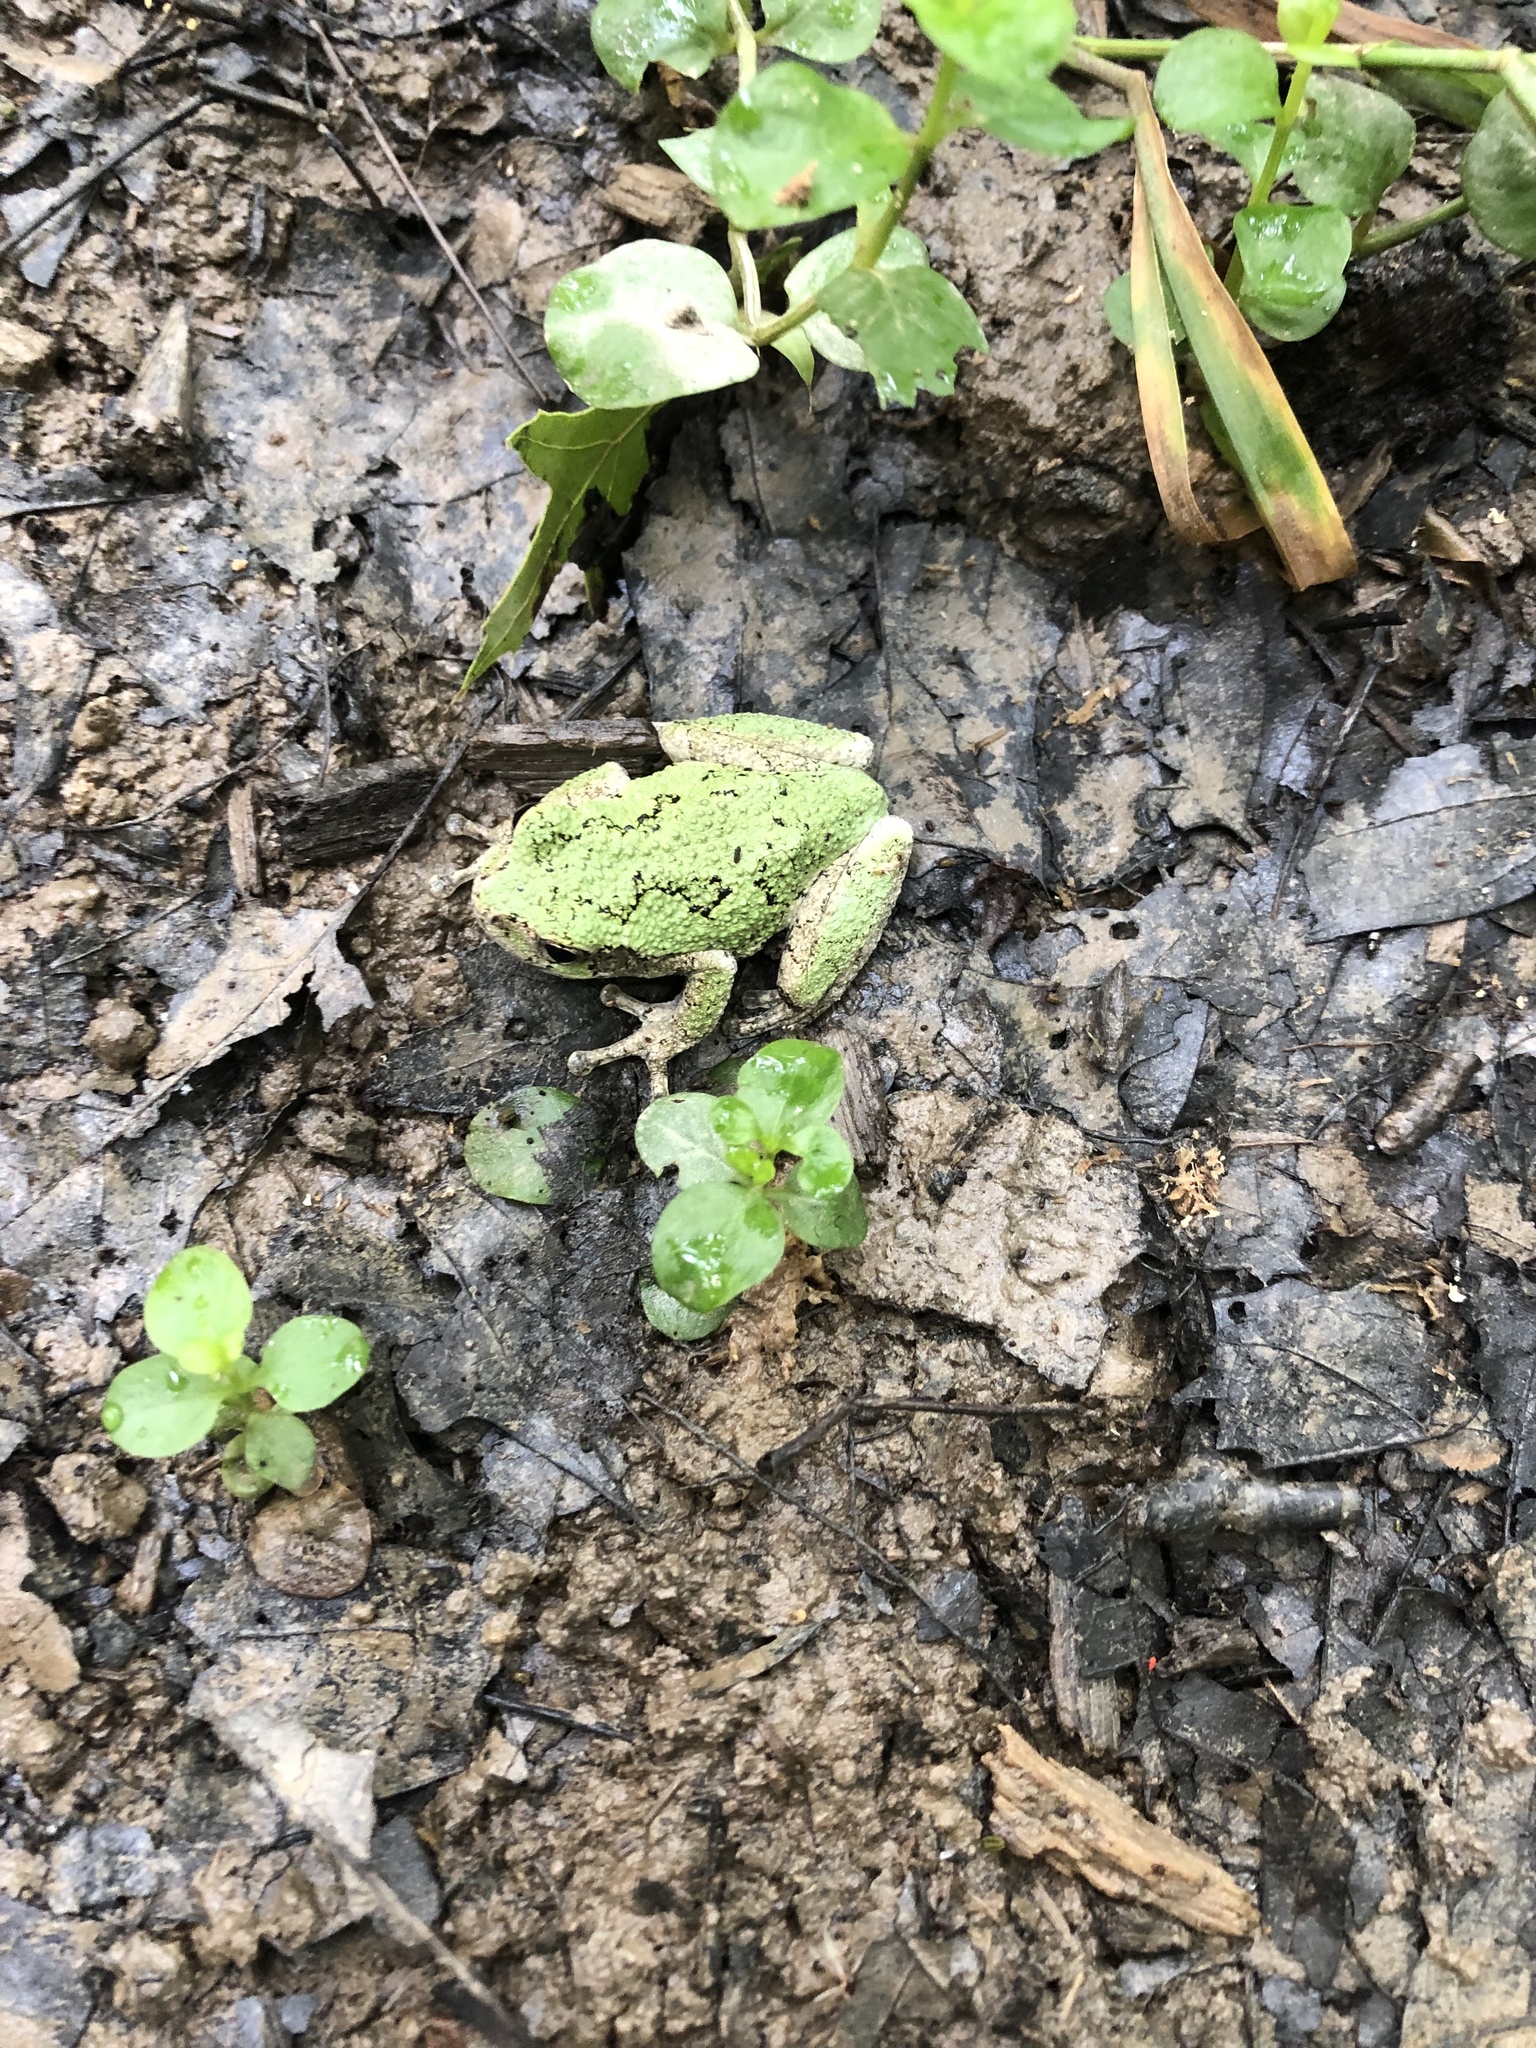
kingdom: Animalia
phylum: Chordata
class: Amphibia
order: Anura
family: Hylidae
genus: Dryophytes
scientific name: Dryophytes chrysoscelis
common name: Cope's gray treefrog
